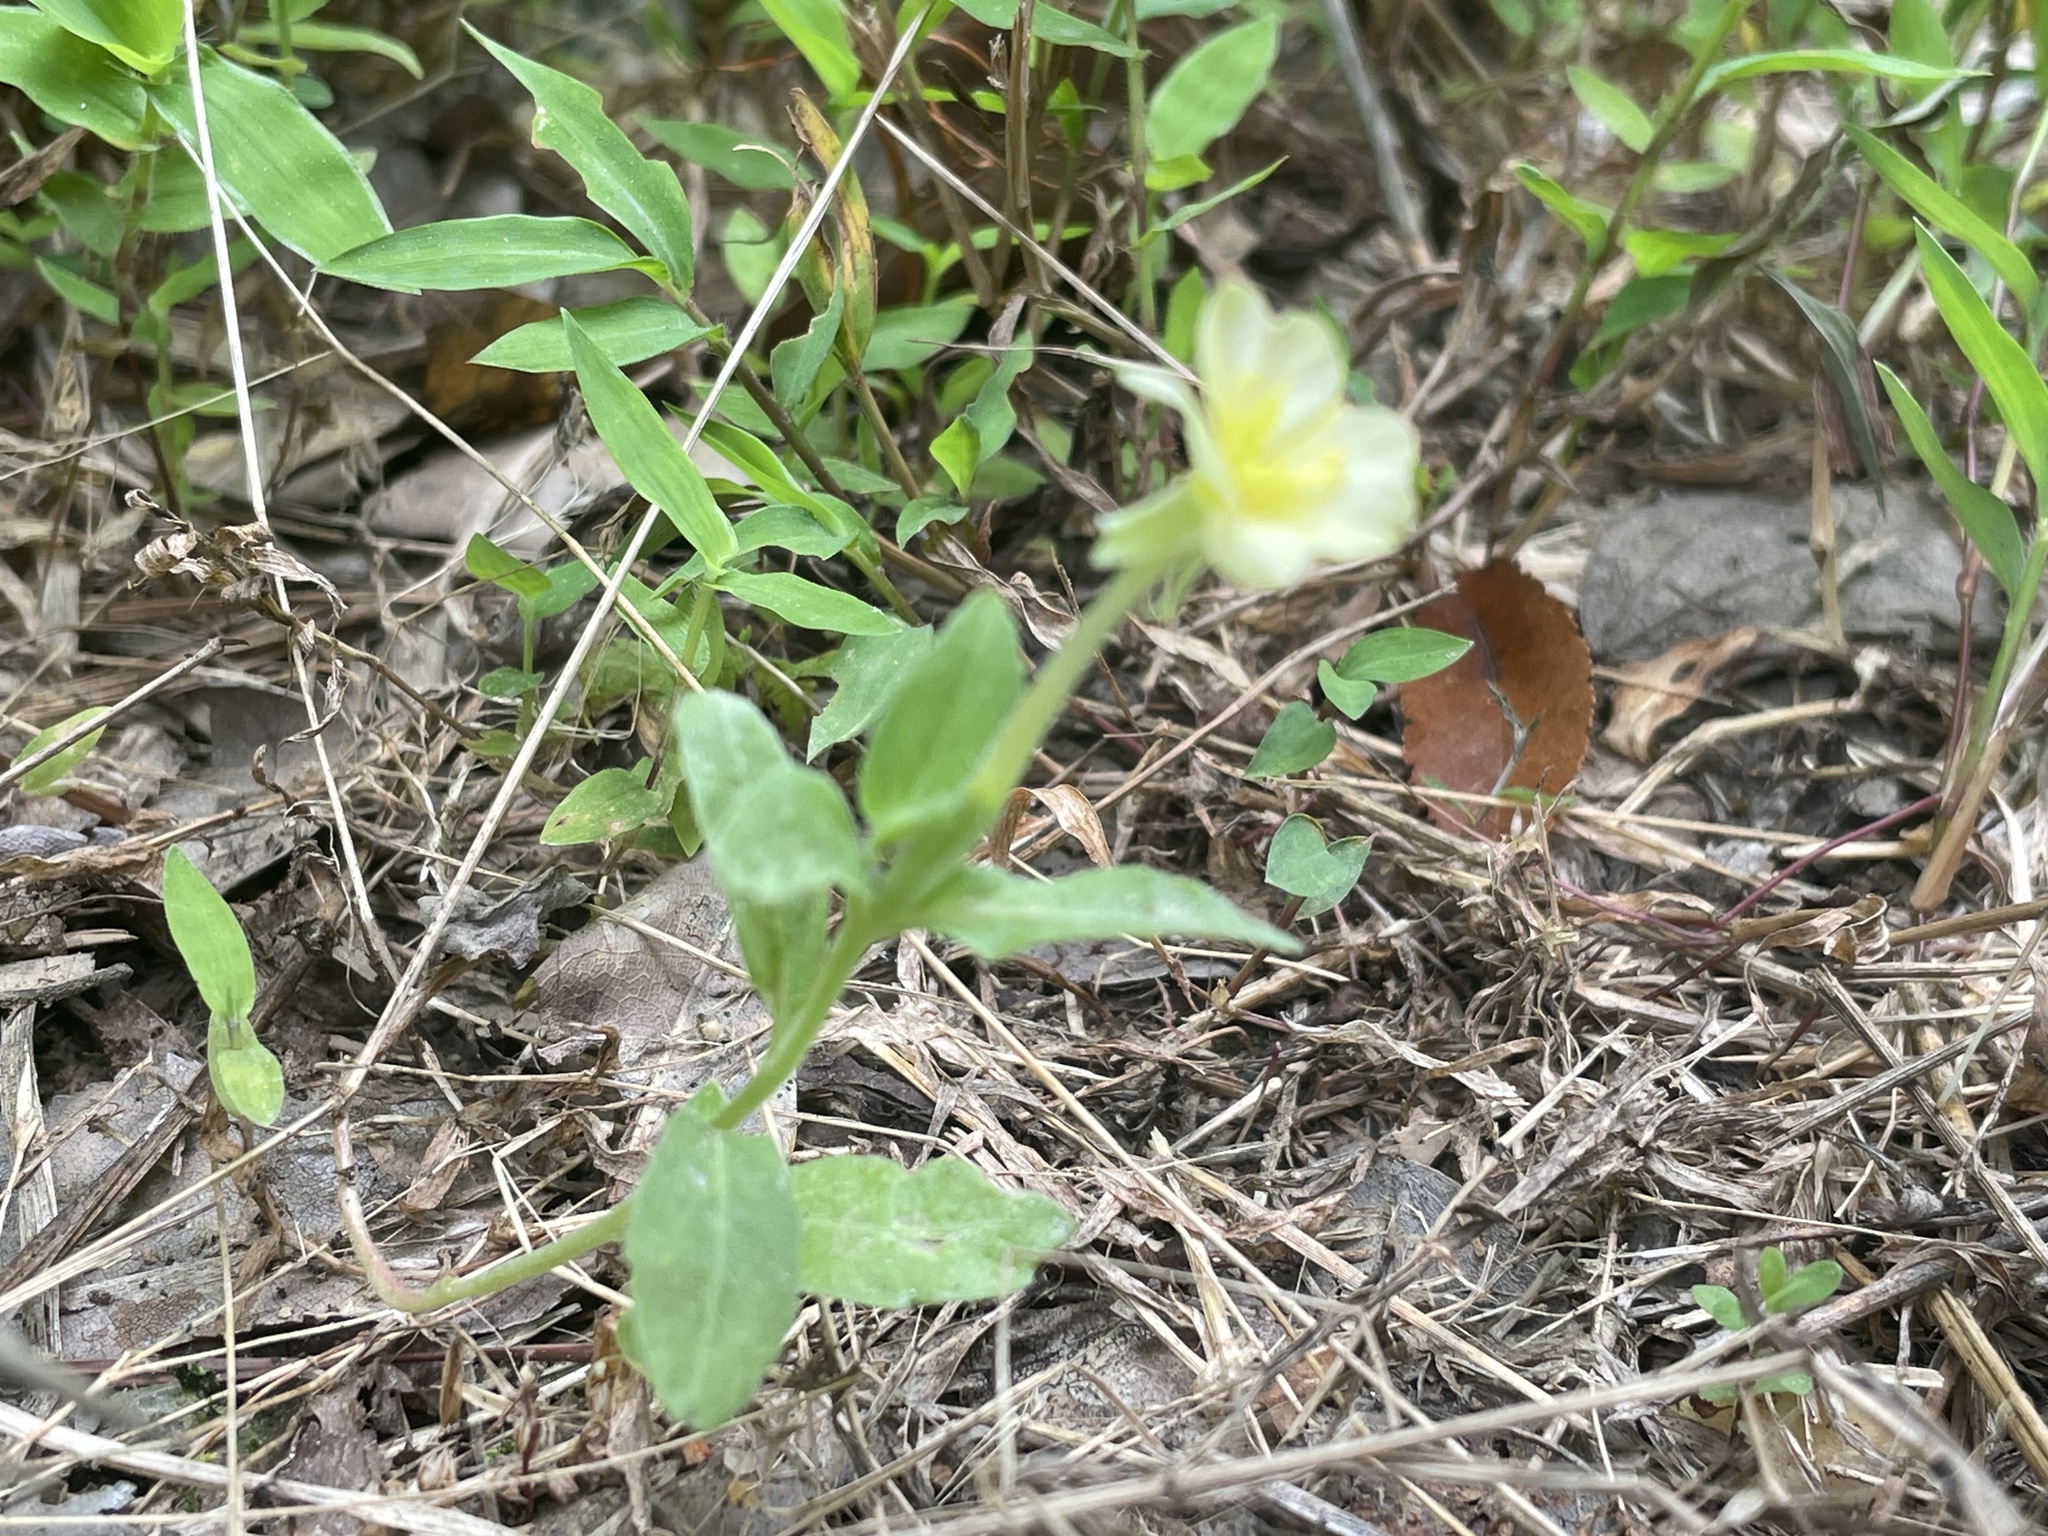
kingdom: Plantae
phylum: Tracheophyta
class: Magnoliopsida
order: Myrtales
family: Onagraceae
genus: Oenothera
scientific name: Oenothera laciniata
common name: Cut-leaved evening-primrose
